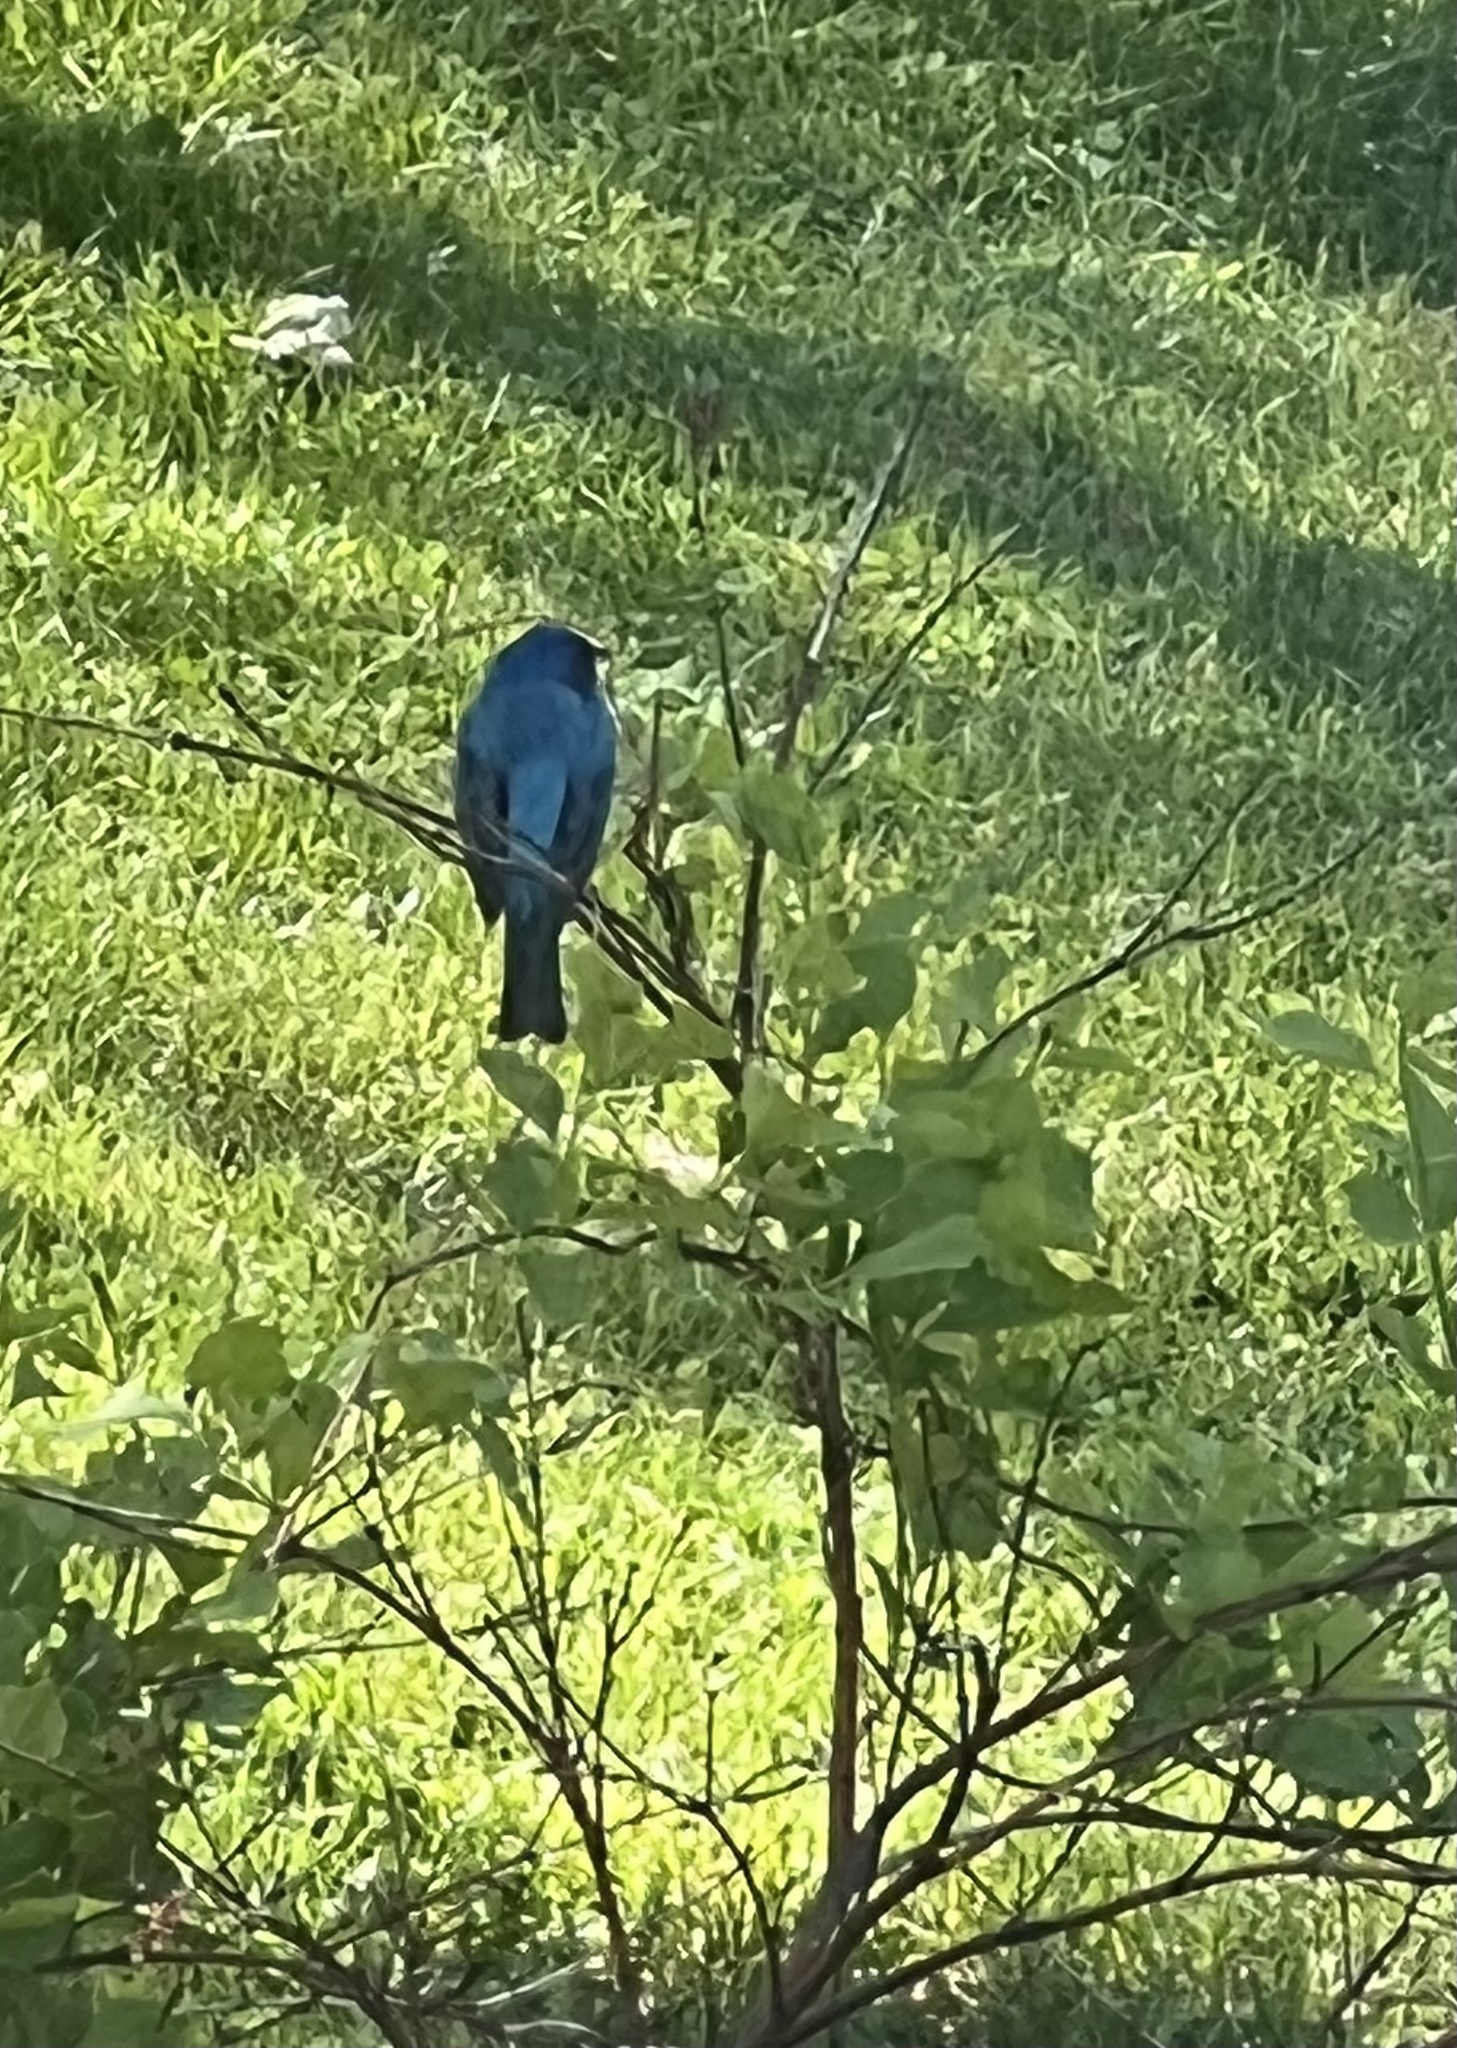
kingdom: Animalia
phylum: Chordata
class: Aves
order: Passeriformes
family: Cardinalidae
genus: Passerina
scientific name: Passerina cyanea
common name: Indigo bunting
